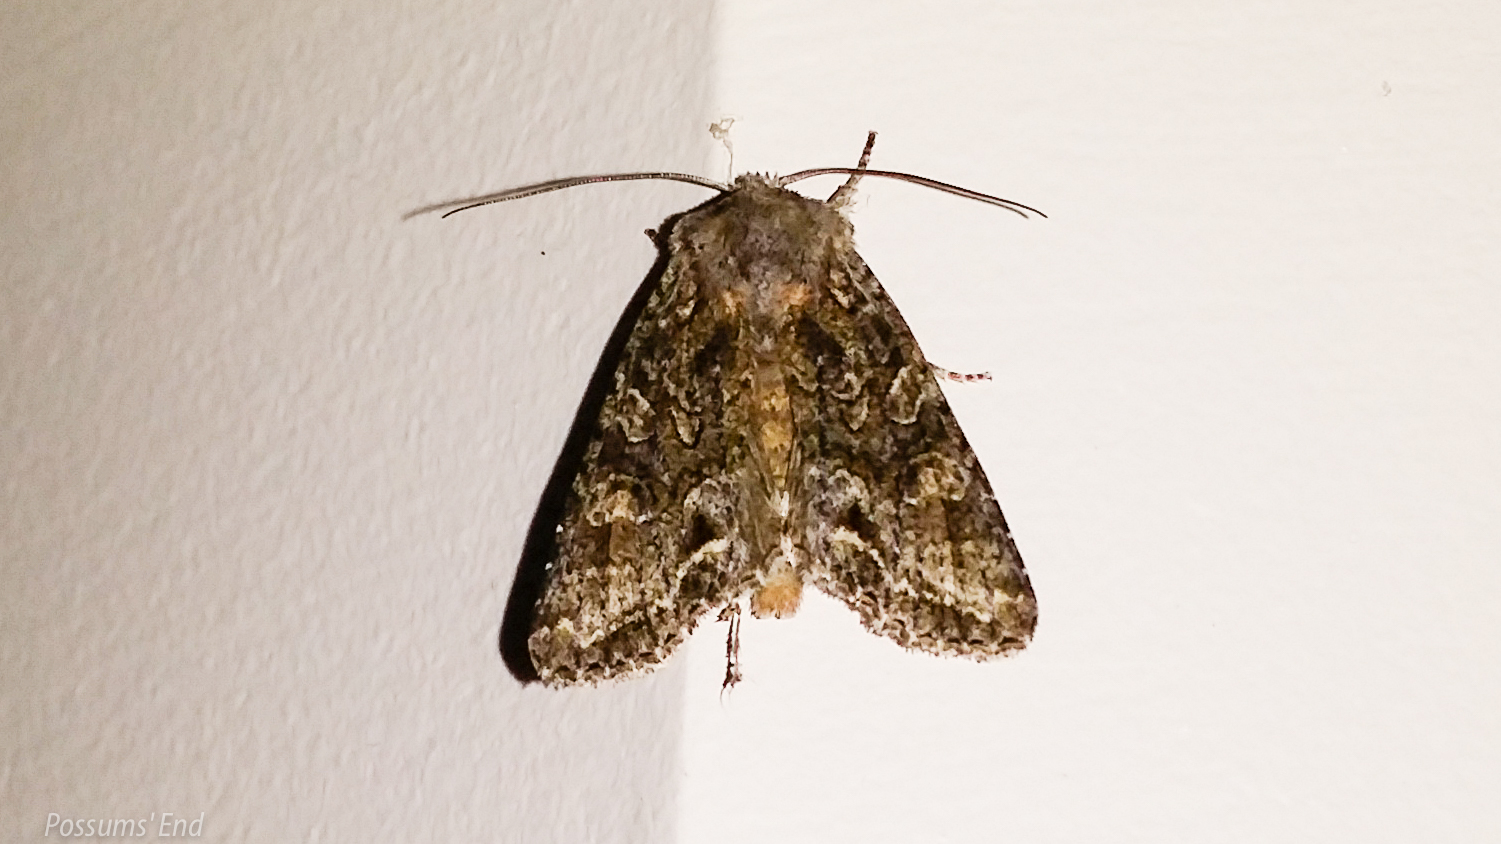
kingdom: Animalia
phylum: Arthropoda
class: Insecta
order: Lepidoptera
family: Noctuidae
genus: Ichneutica
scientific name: Ichneutica mutans
